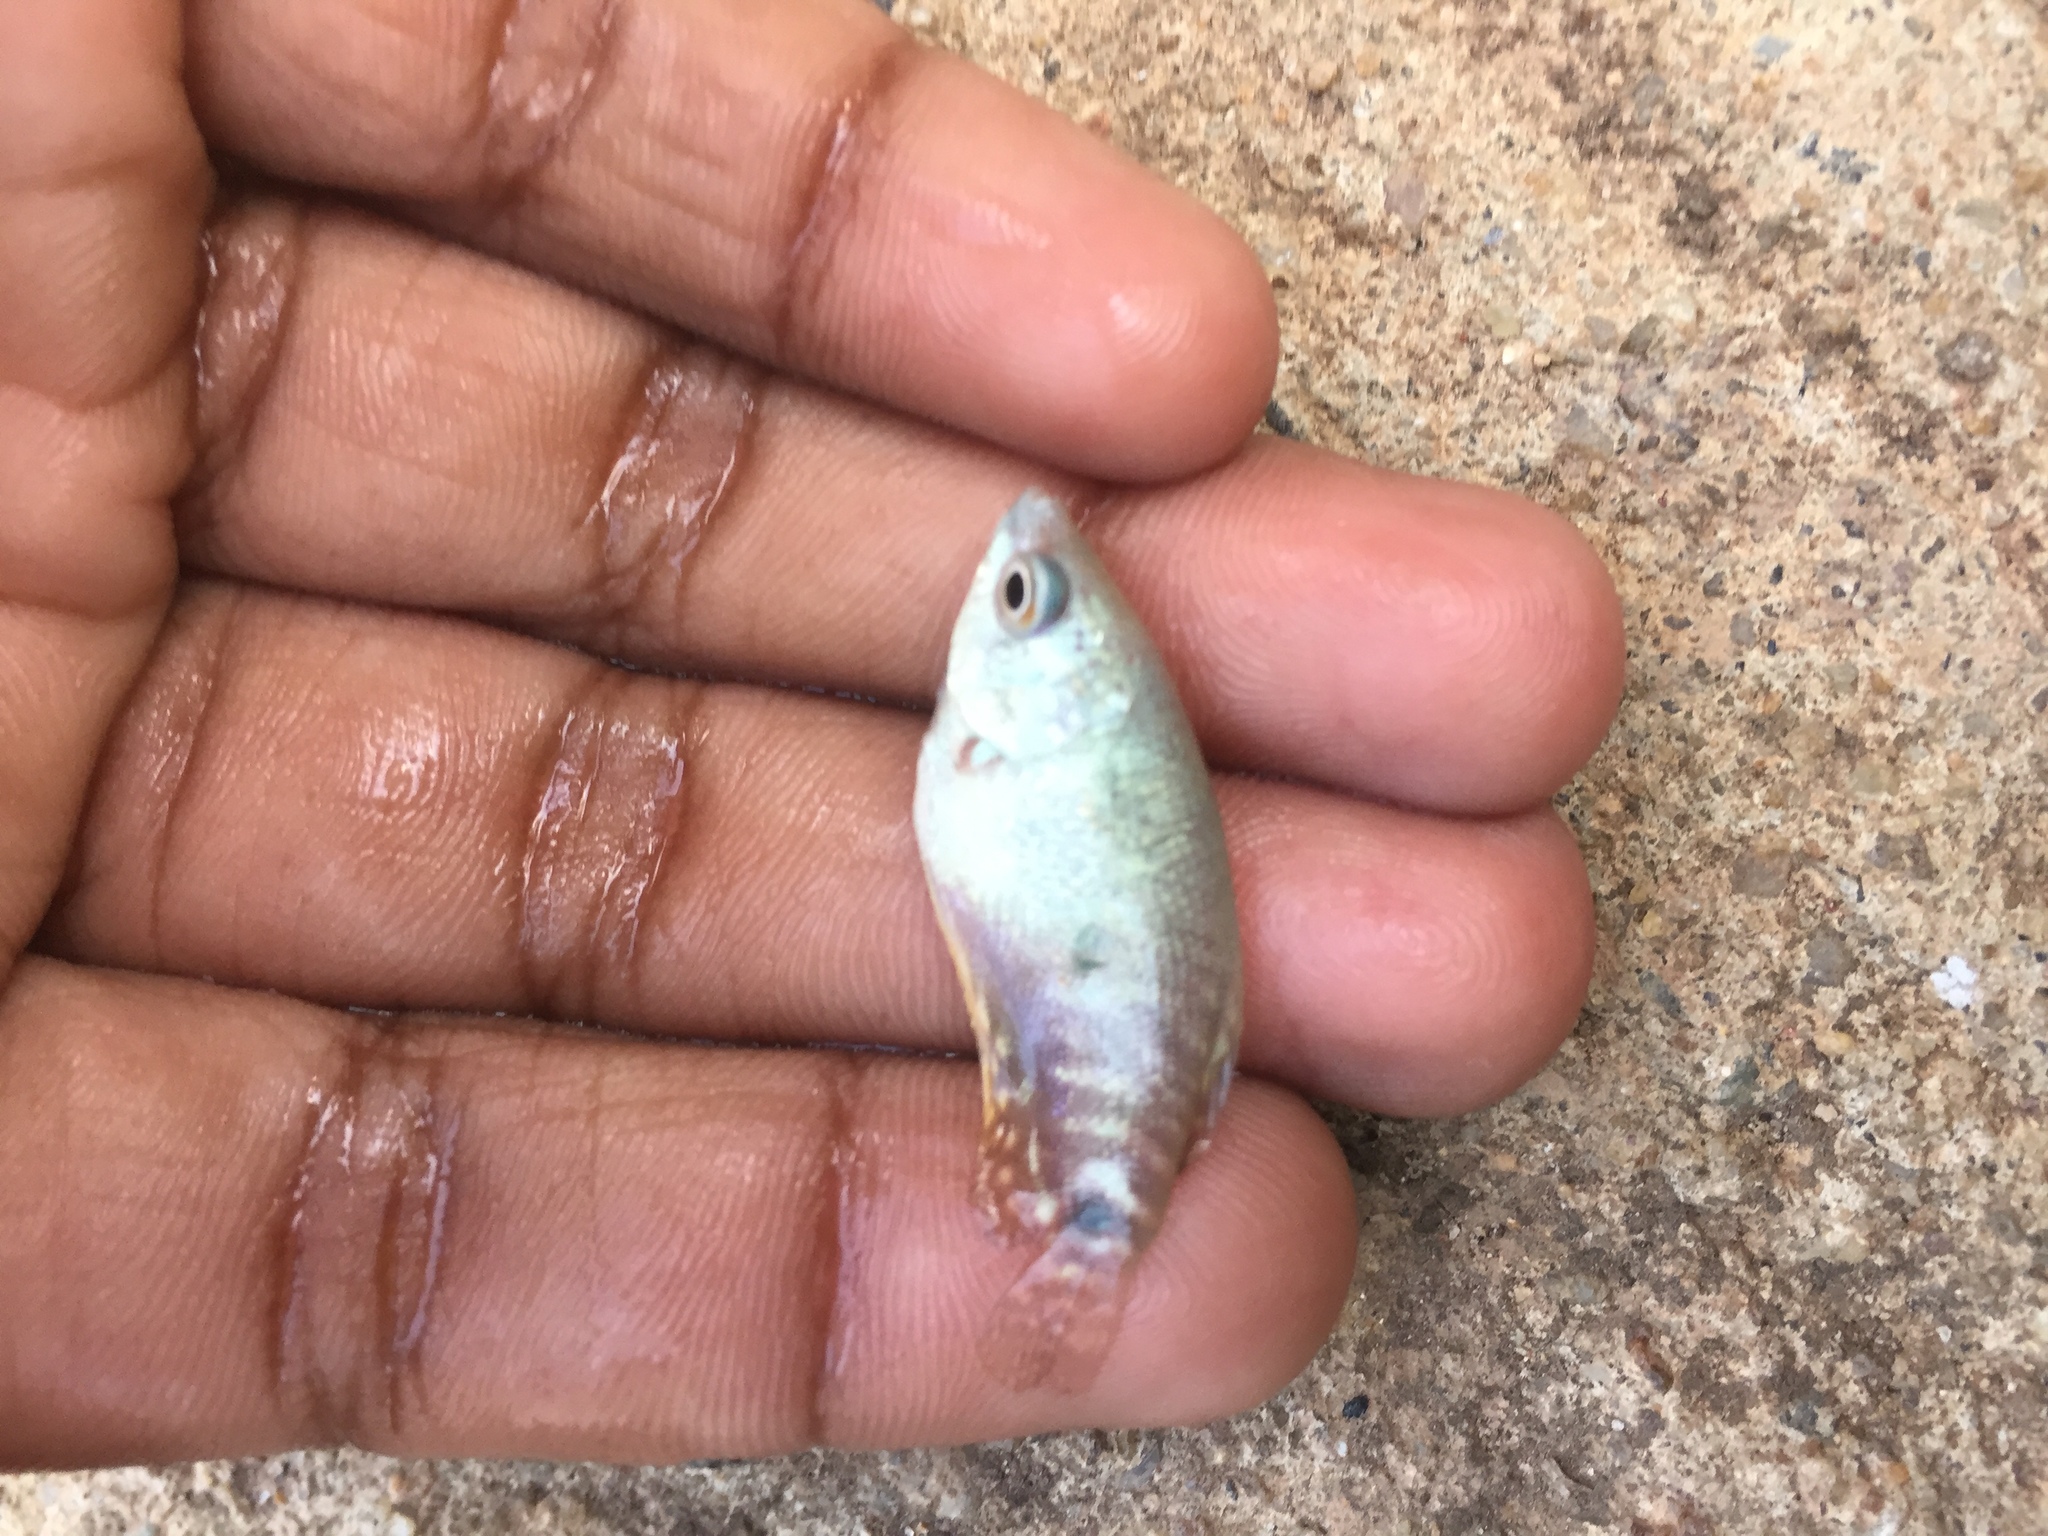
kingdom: Animalia
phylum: Chordata
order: Perciformes
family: Osphronemidae
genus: Trichopodus
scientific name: Trichopodus trichopterus
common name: Blue gourami
